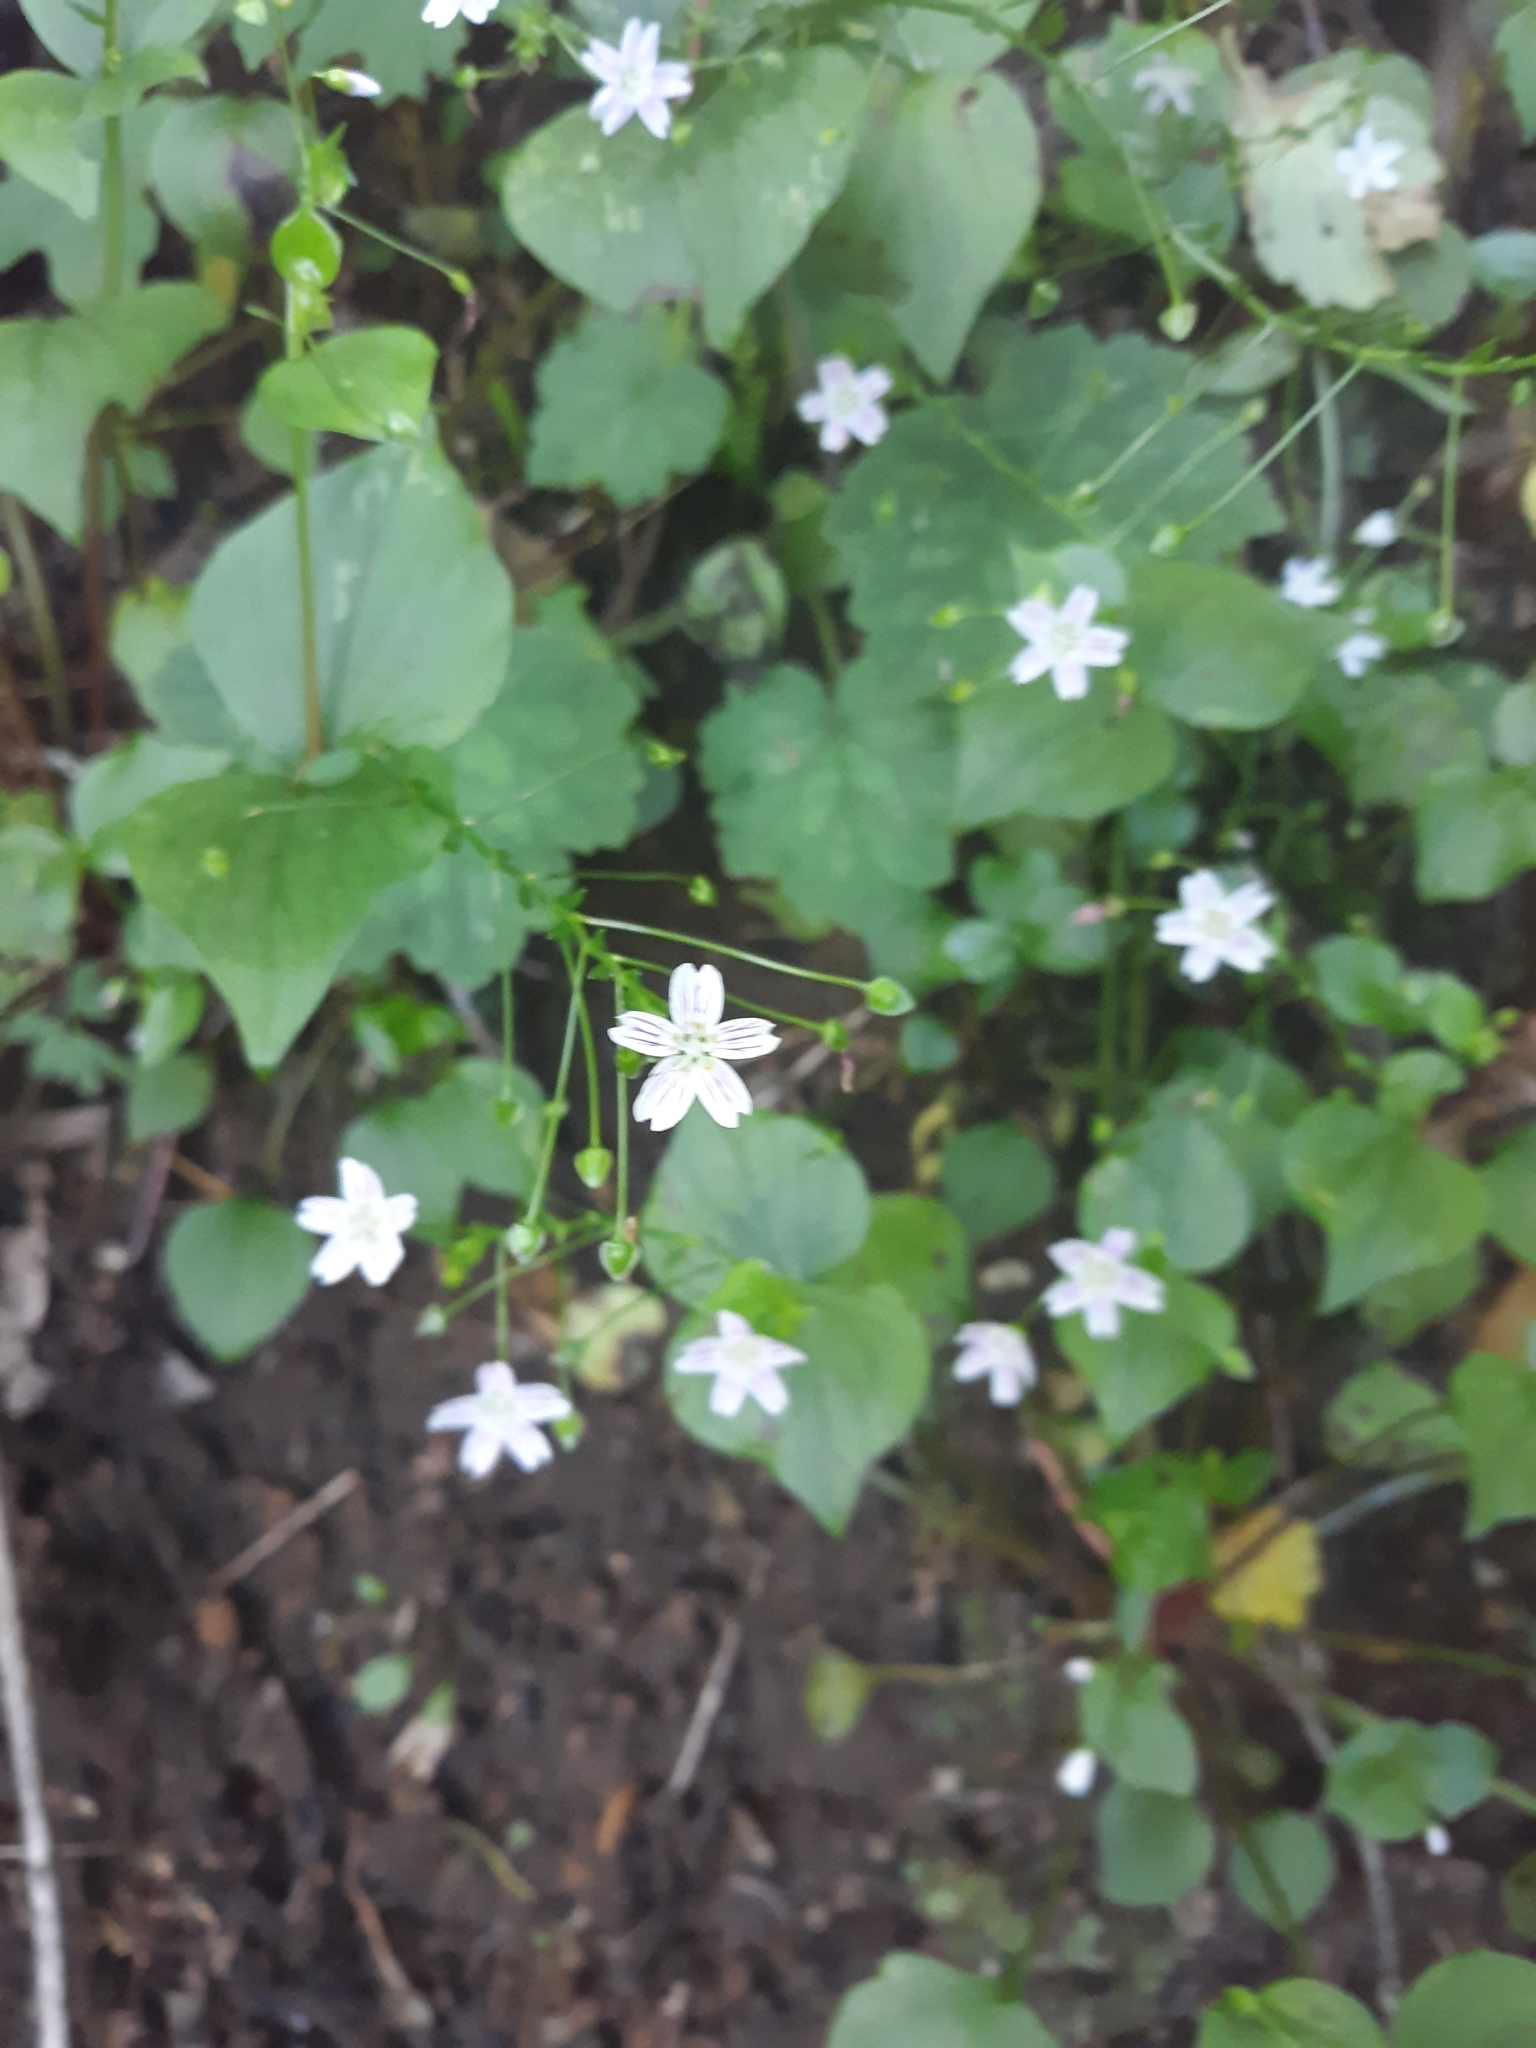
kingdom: Plantae
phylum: Tracheophyta
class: Magnoliopsida
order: Caryophyllales
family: Montiaceae
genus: Claytonia
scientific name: Claytonia sibirica
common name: Pink purslane
